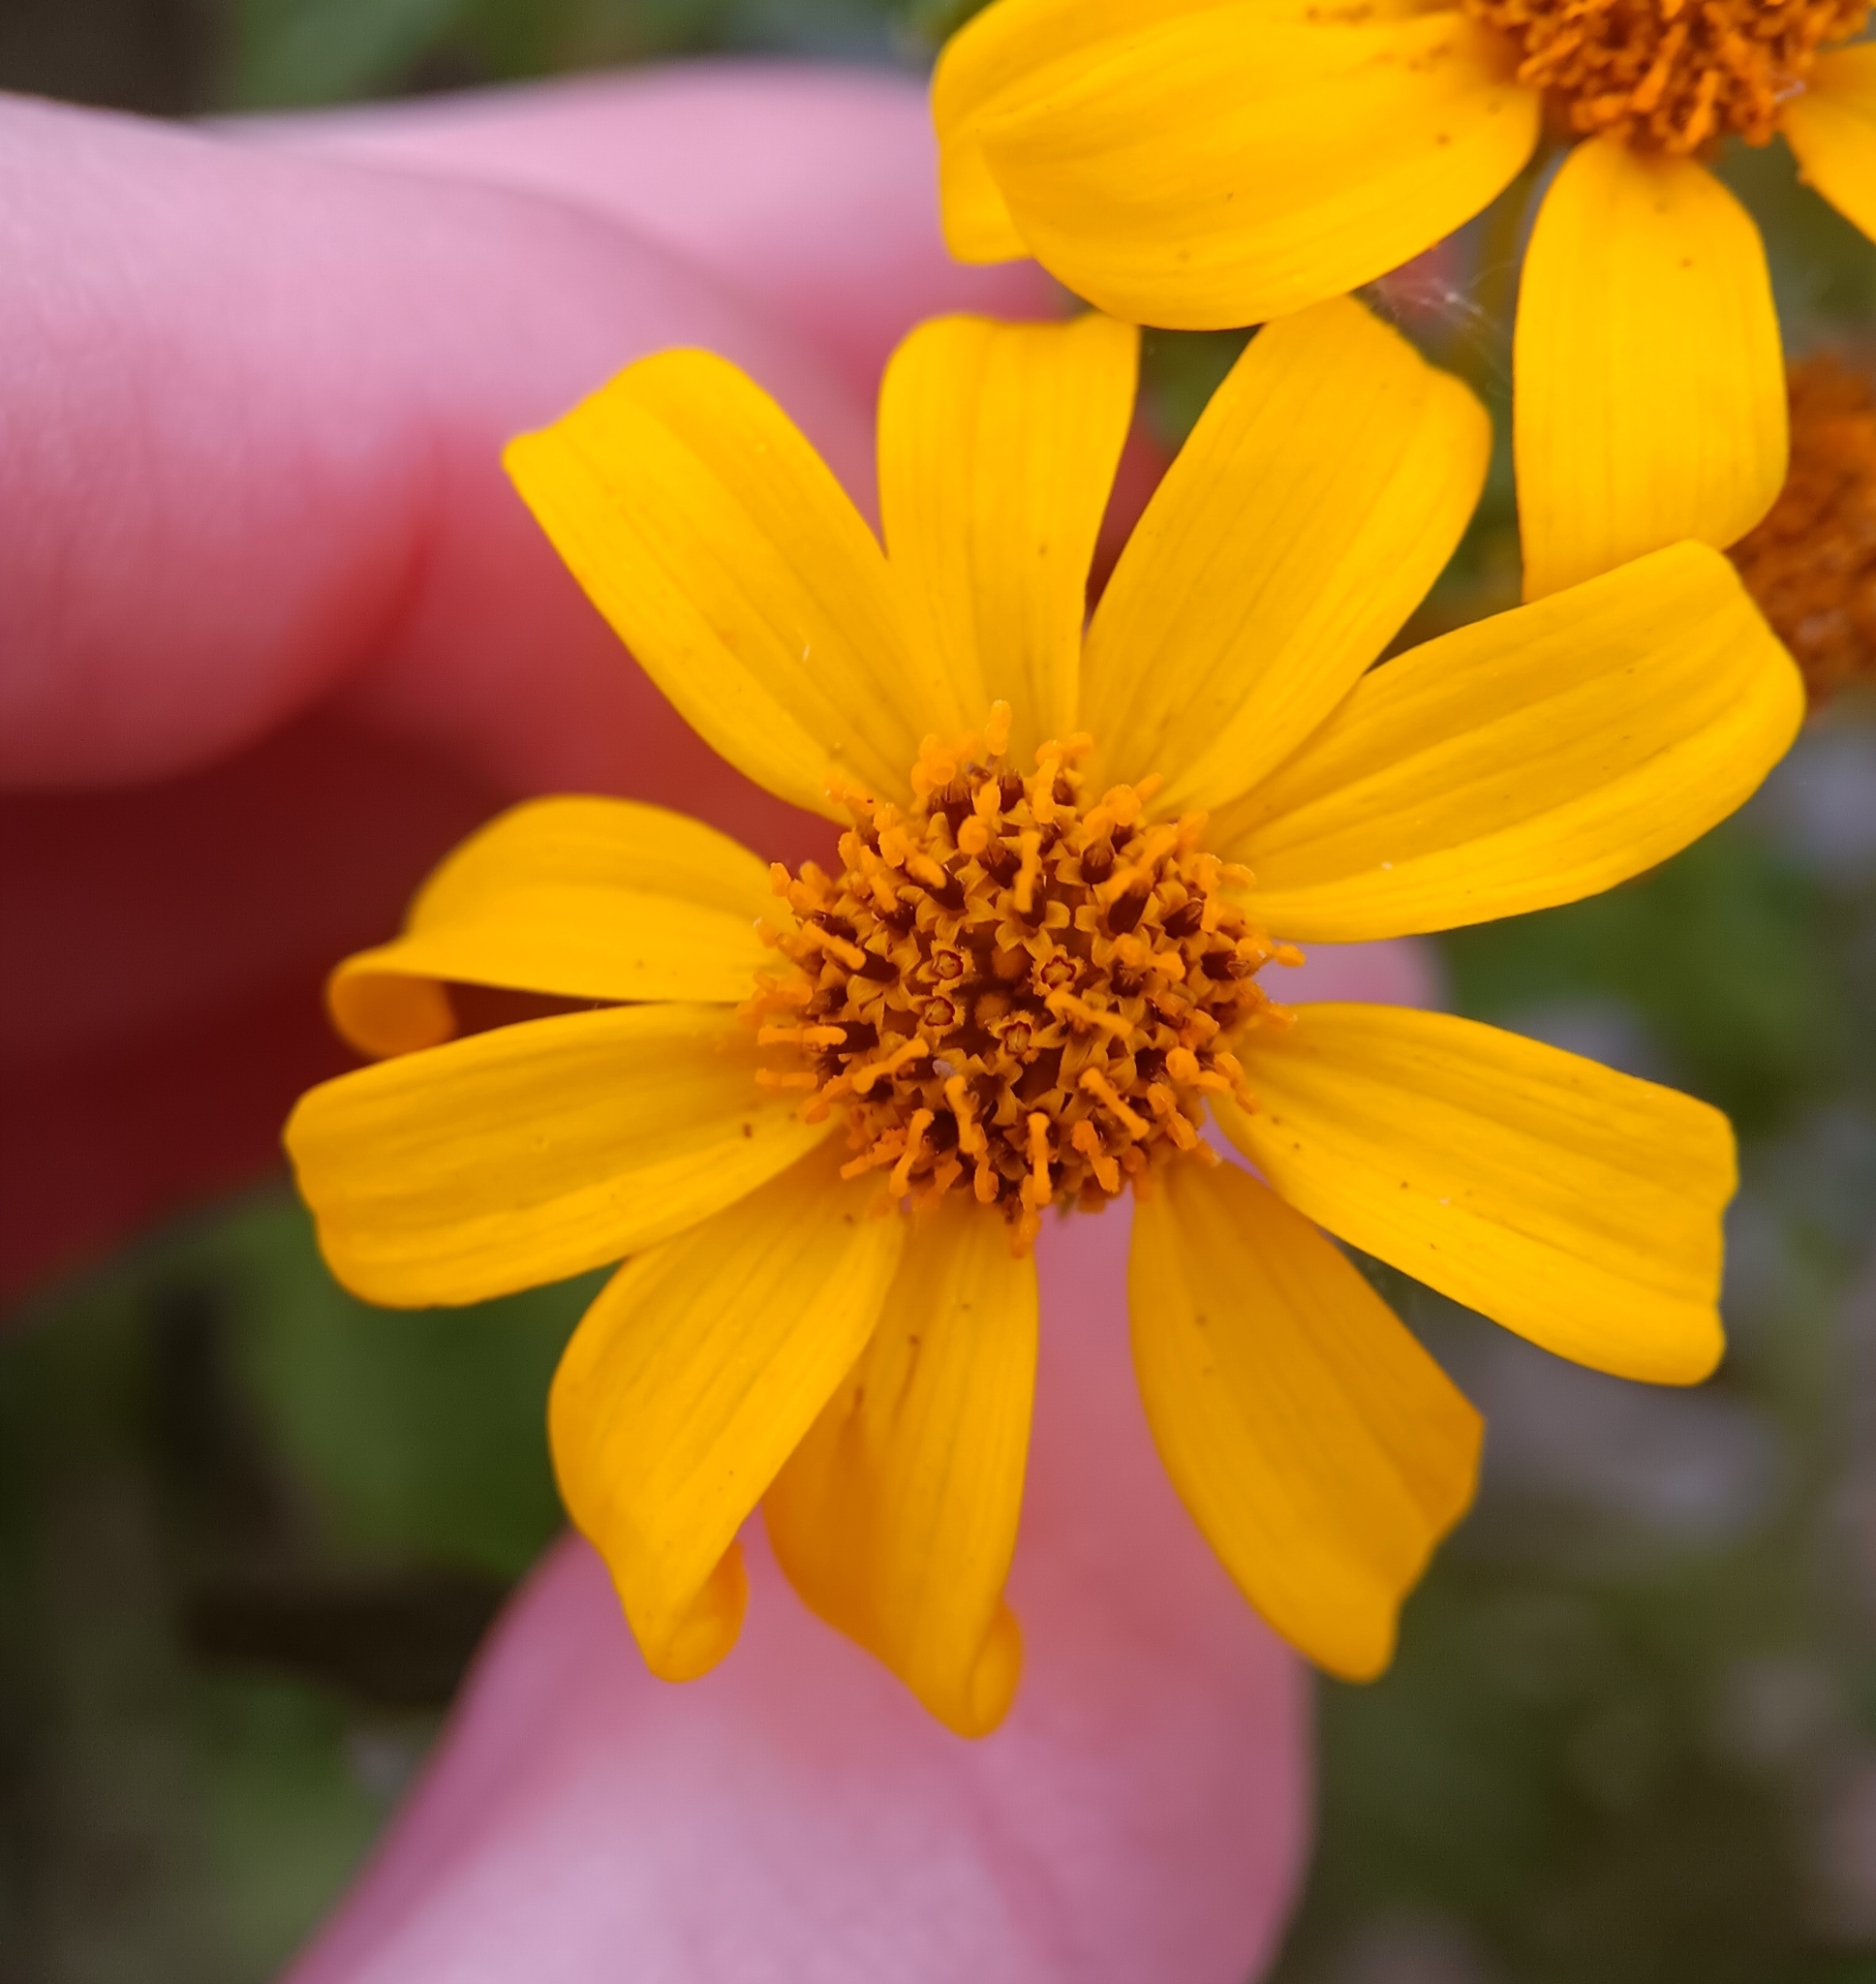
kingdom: Plantae
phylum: Tracheophyta
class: Magnoliopsida
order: Asterales
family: Asteraceae
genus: Bahiopsis
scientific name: Bahiopsis laciniata
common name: San diego county viguiera
